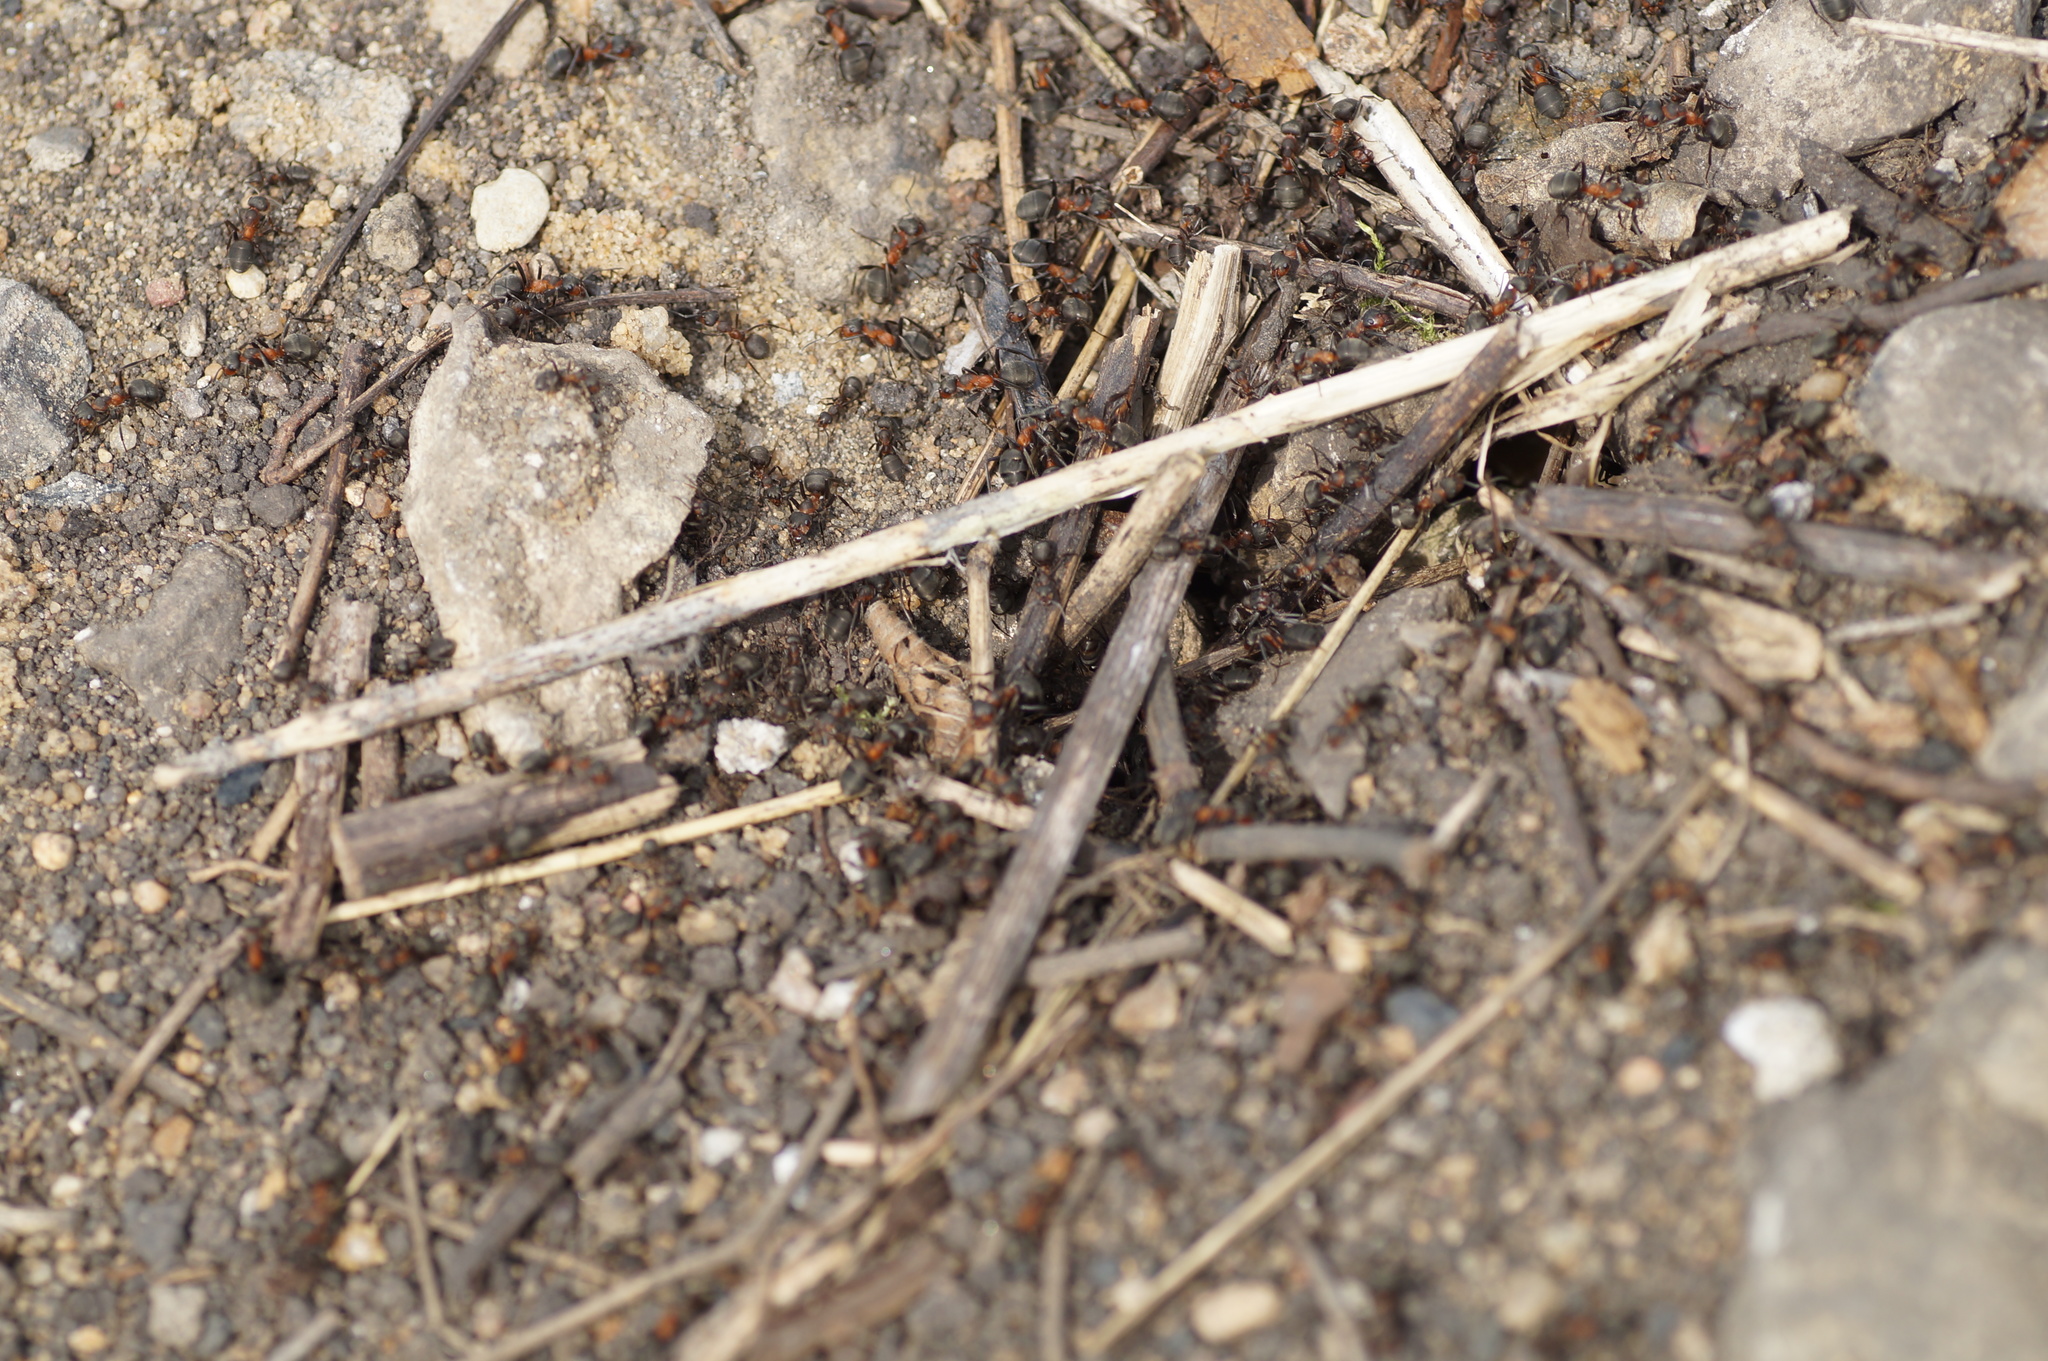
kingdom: Animalia
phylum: Arthropoda
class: Insecta
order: Hymenoptera
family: Formicidae
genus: Formica
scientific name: Formica pratensis
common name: European red wood ant
